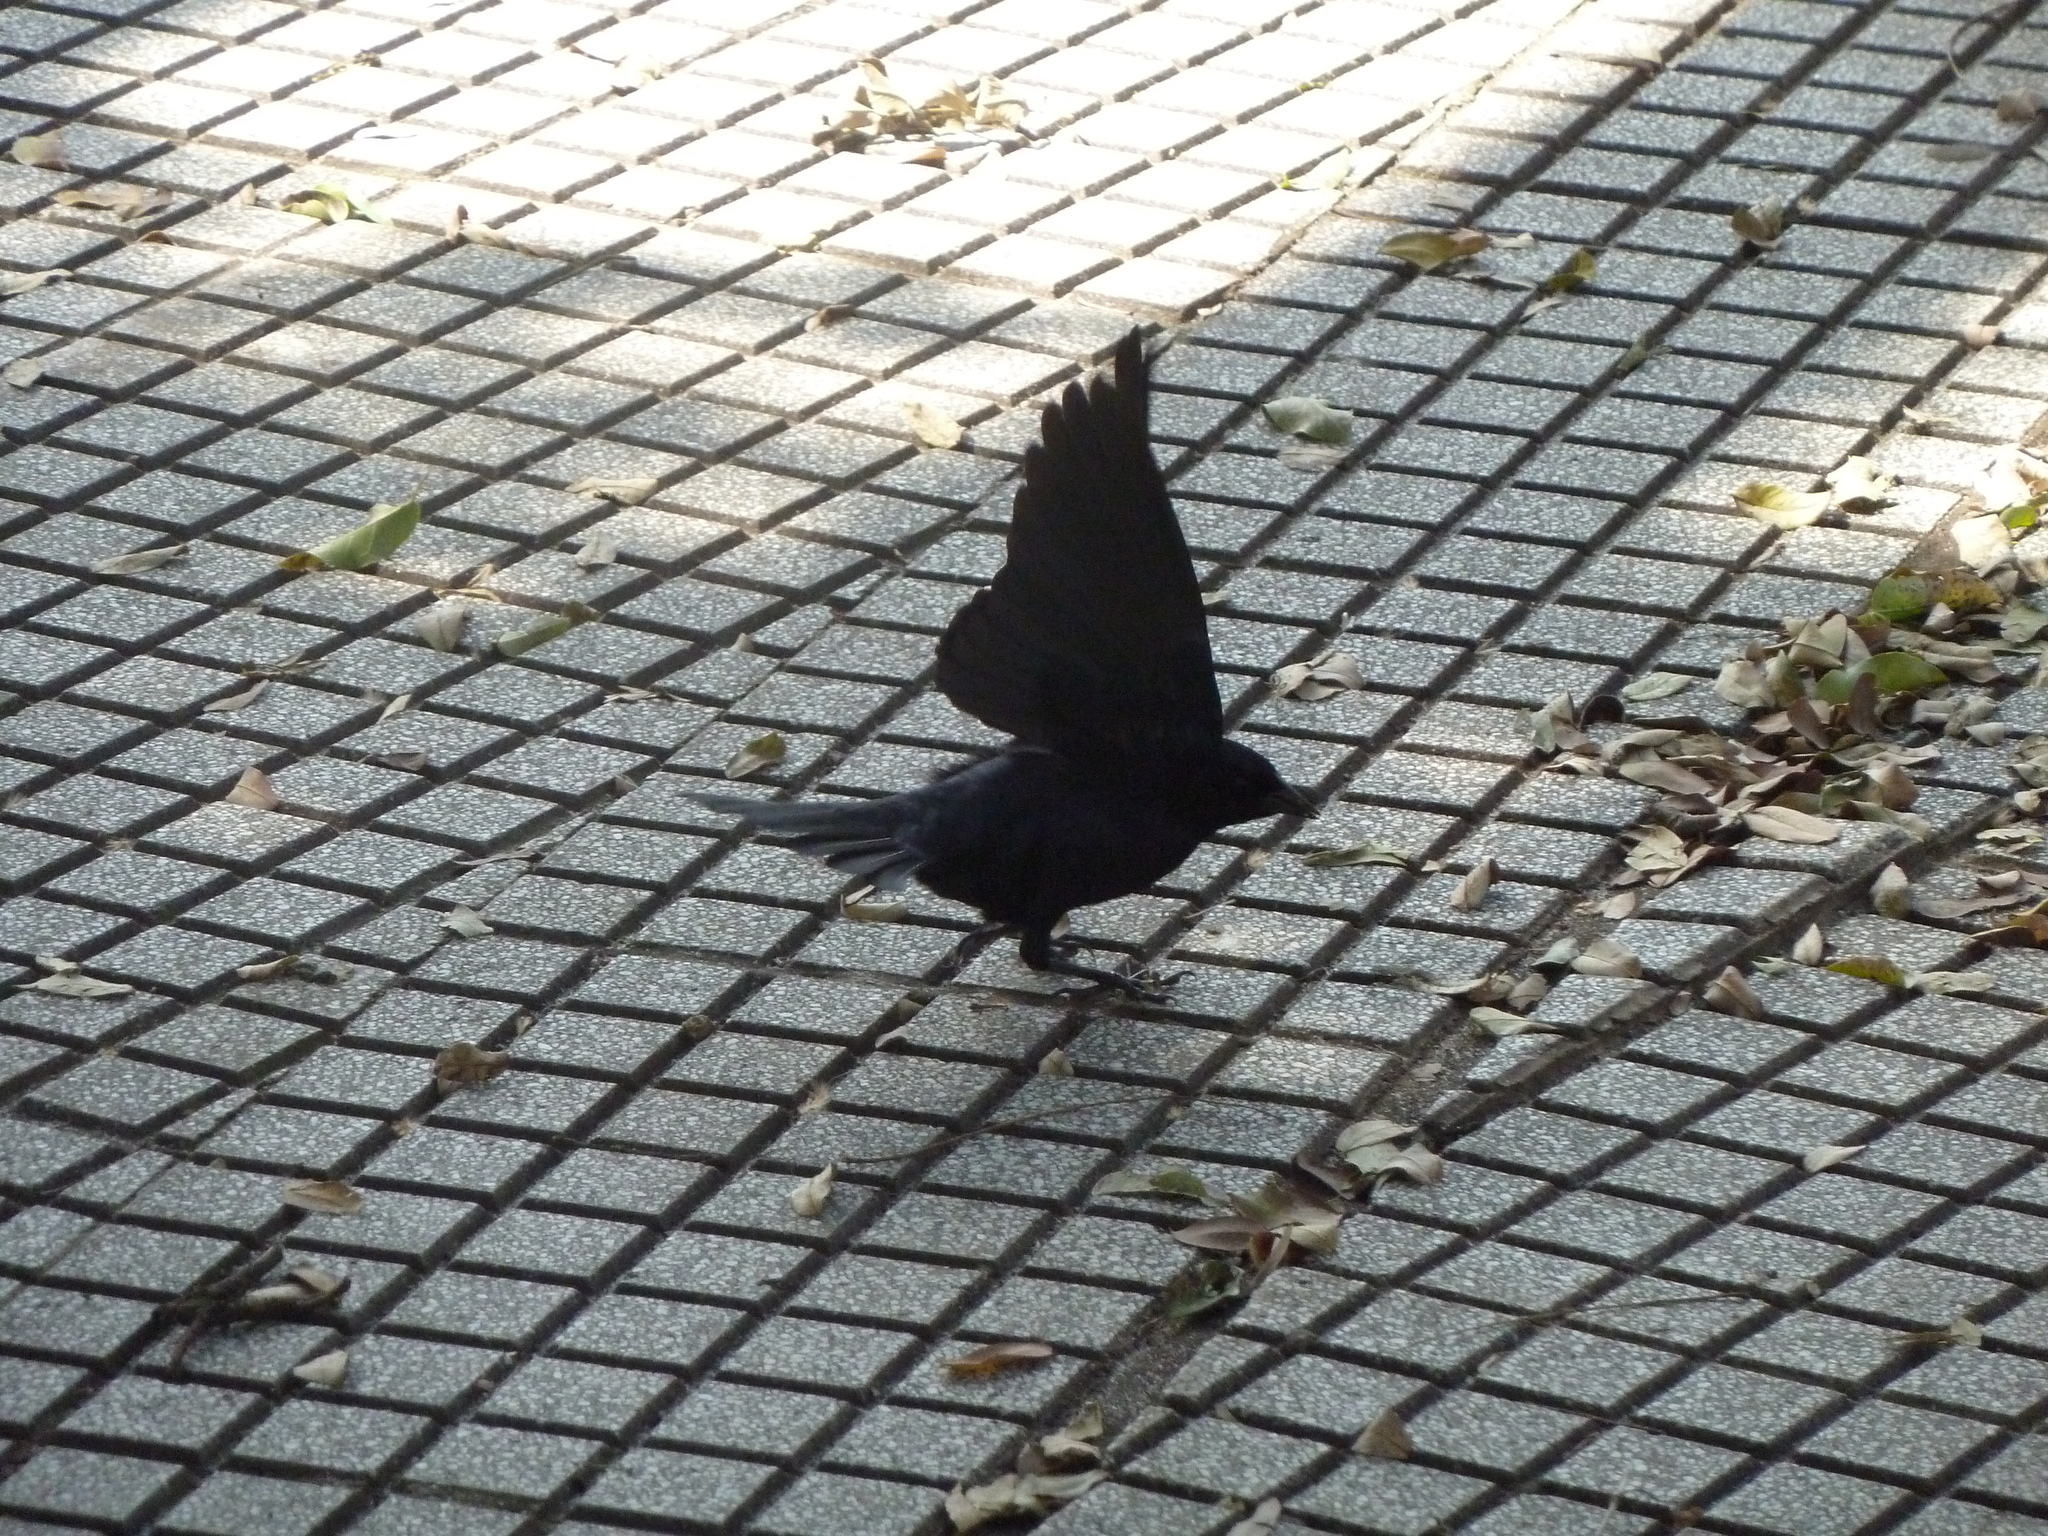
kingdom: Animalia
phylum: Chordata
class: Aves
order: Passeriformes
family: Icteridae
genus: Molothrus
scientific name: Molothrus bonariensis
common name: Shiny cowbird
